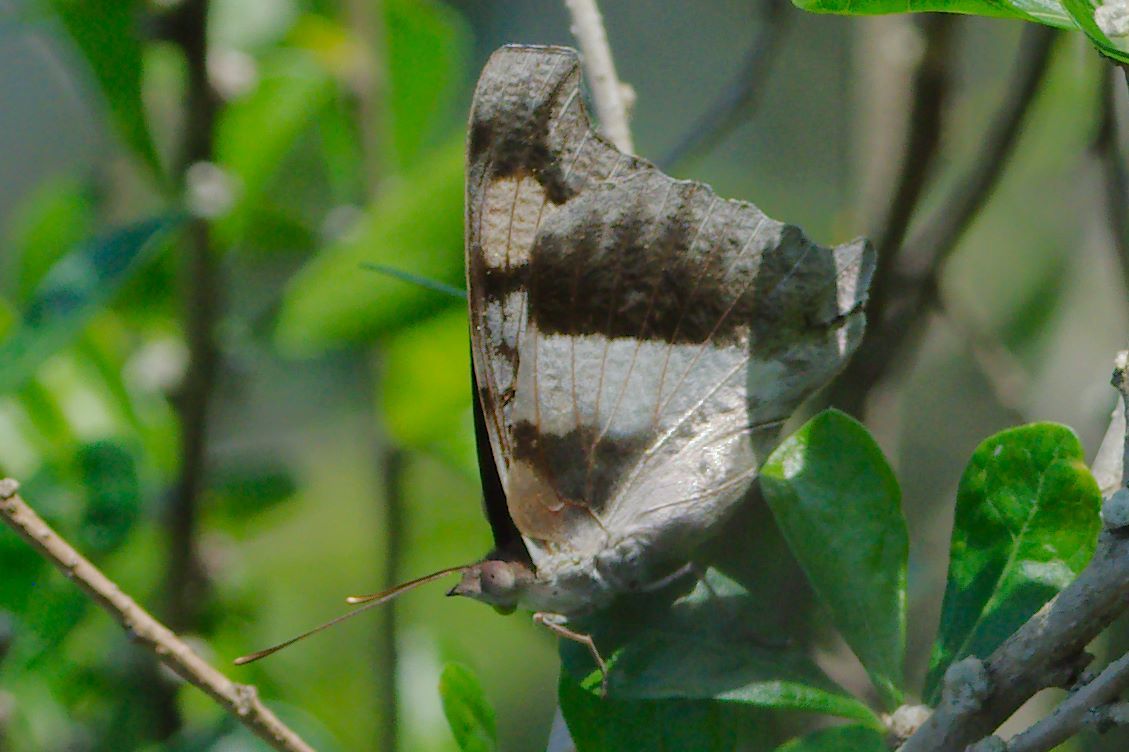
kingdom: Animalia
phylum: Arthropoda
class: Insecta
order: Lepidoptera
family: Nymphalidae
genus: Doxocopa
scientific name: Doxocopa laure
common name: Silver emperor
